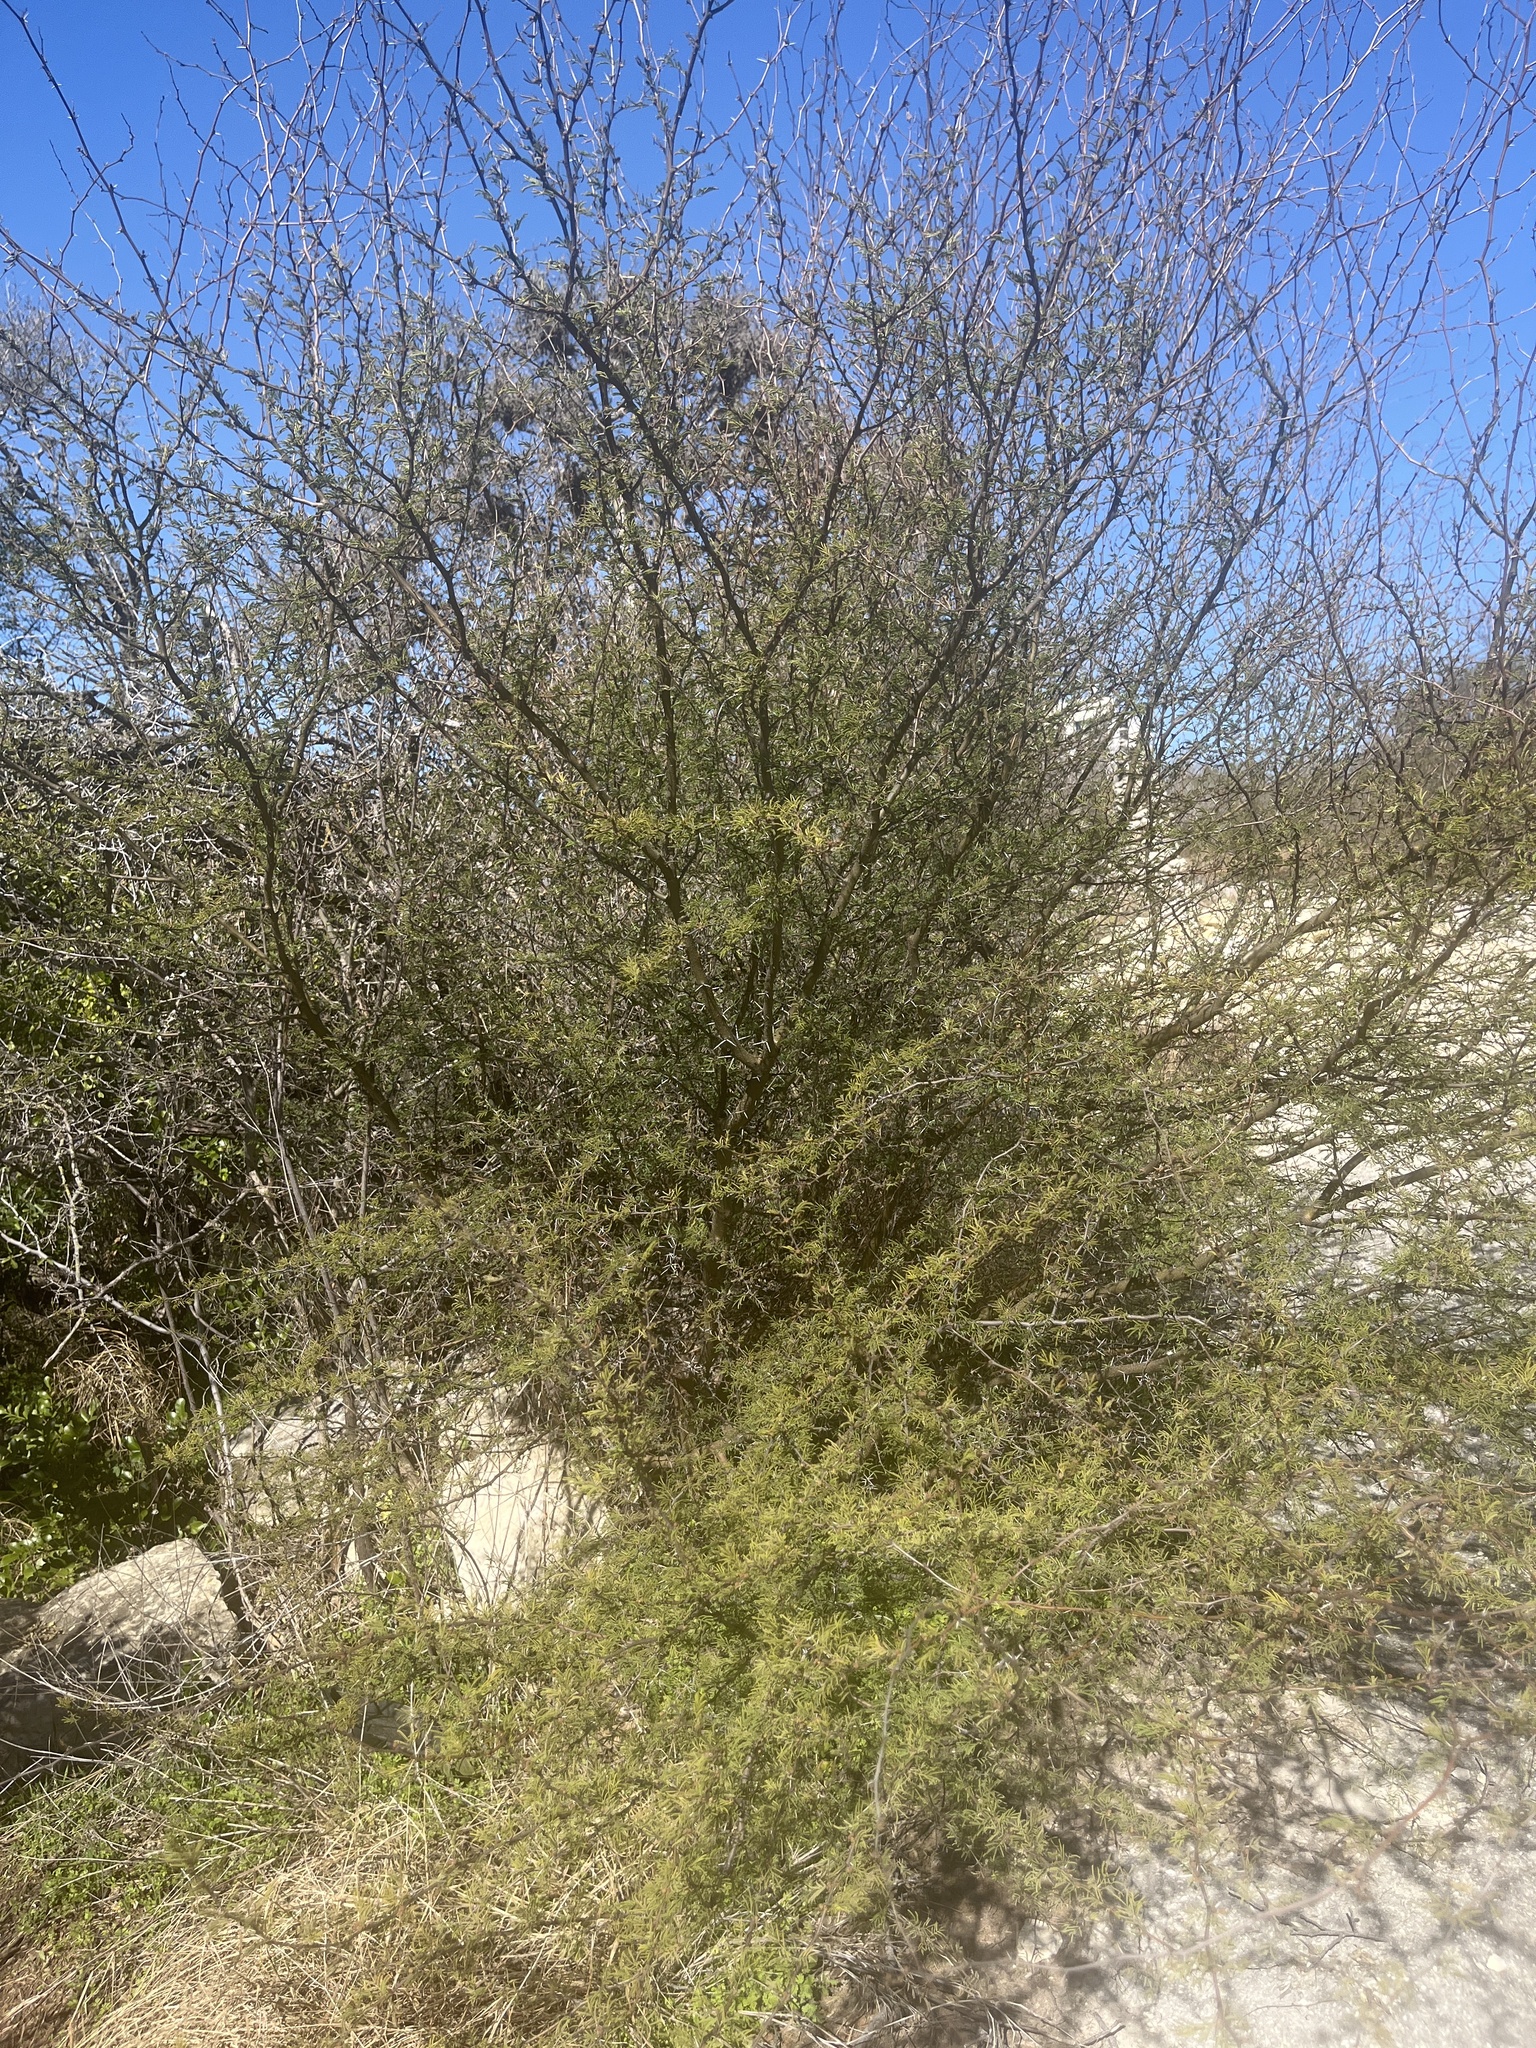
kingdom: Plantae
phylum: Tracheophyta
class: Magnoliopsida
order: Fabales
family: Fabaceae
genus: Vachellia
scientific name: Vachellia farnesiana
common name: Sweet acacia
